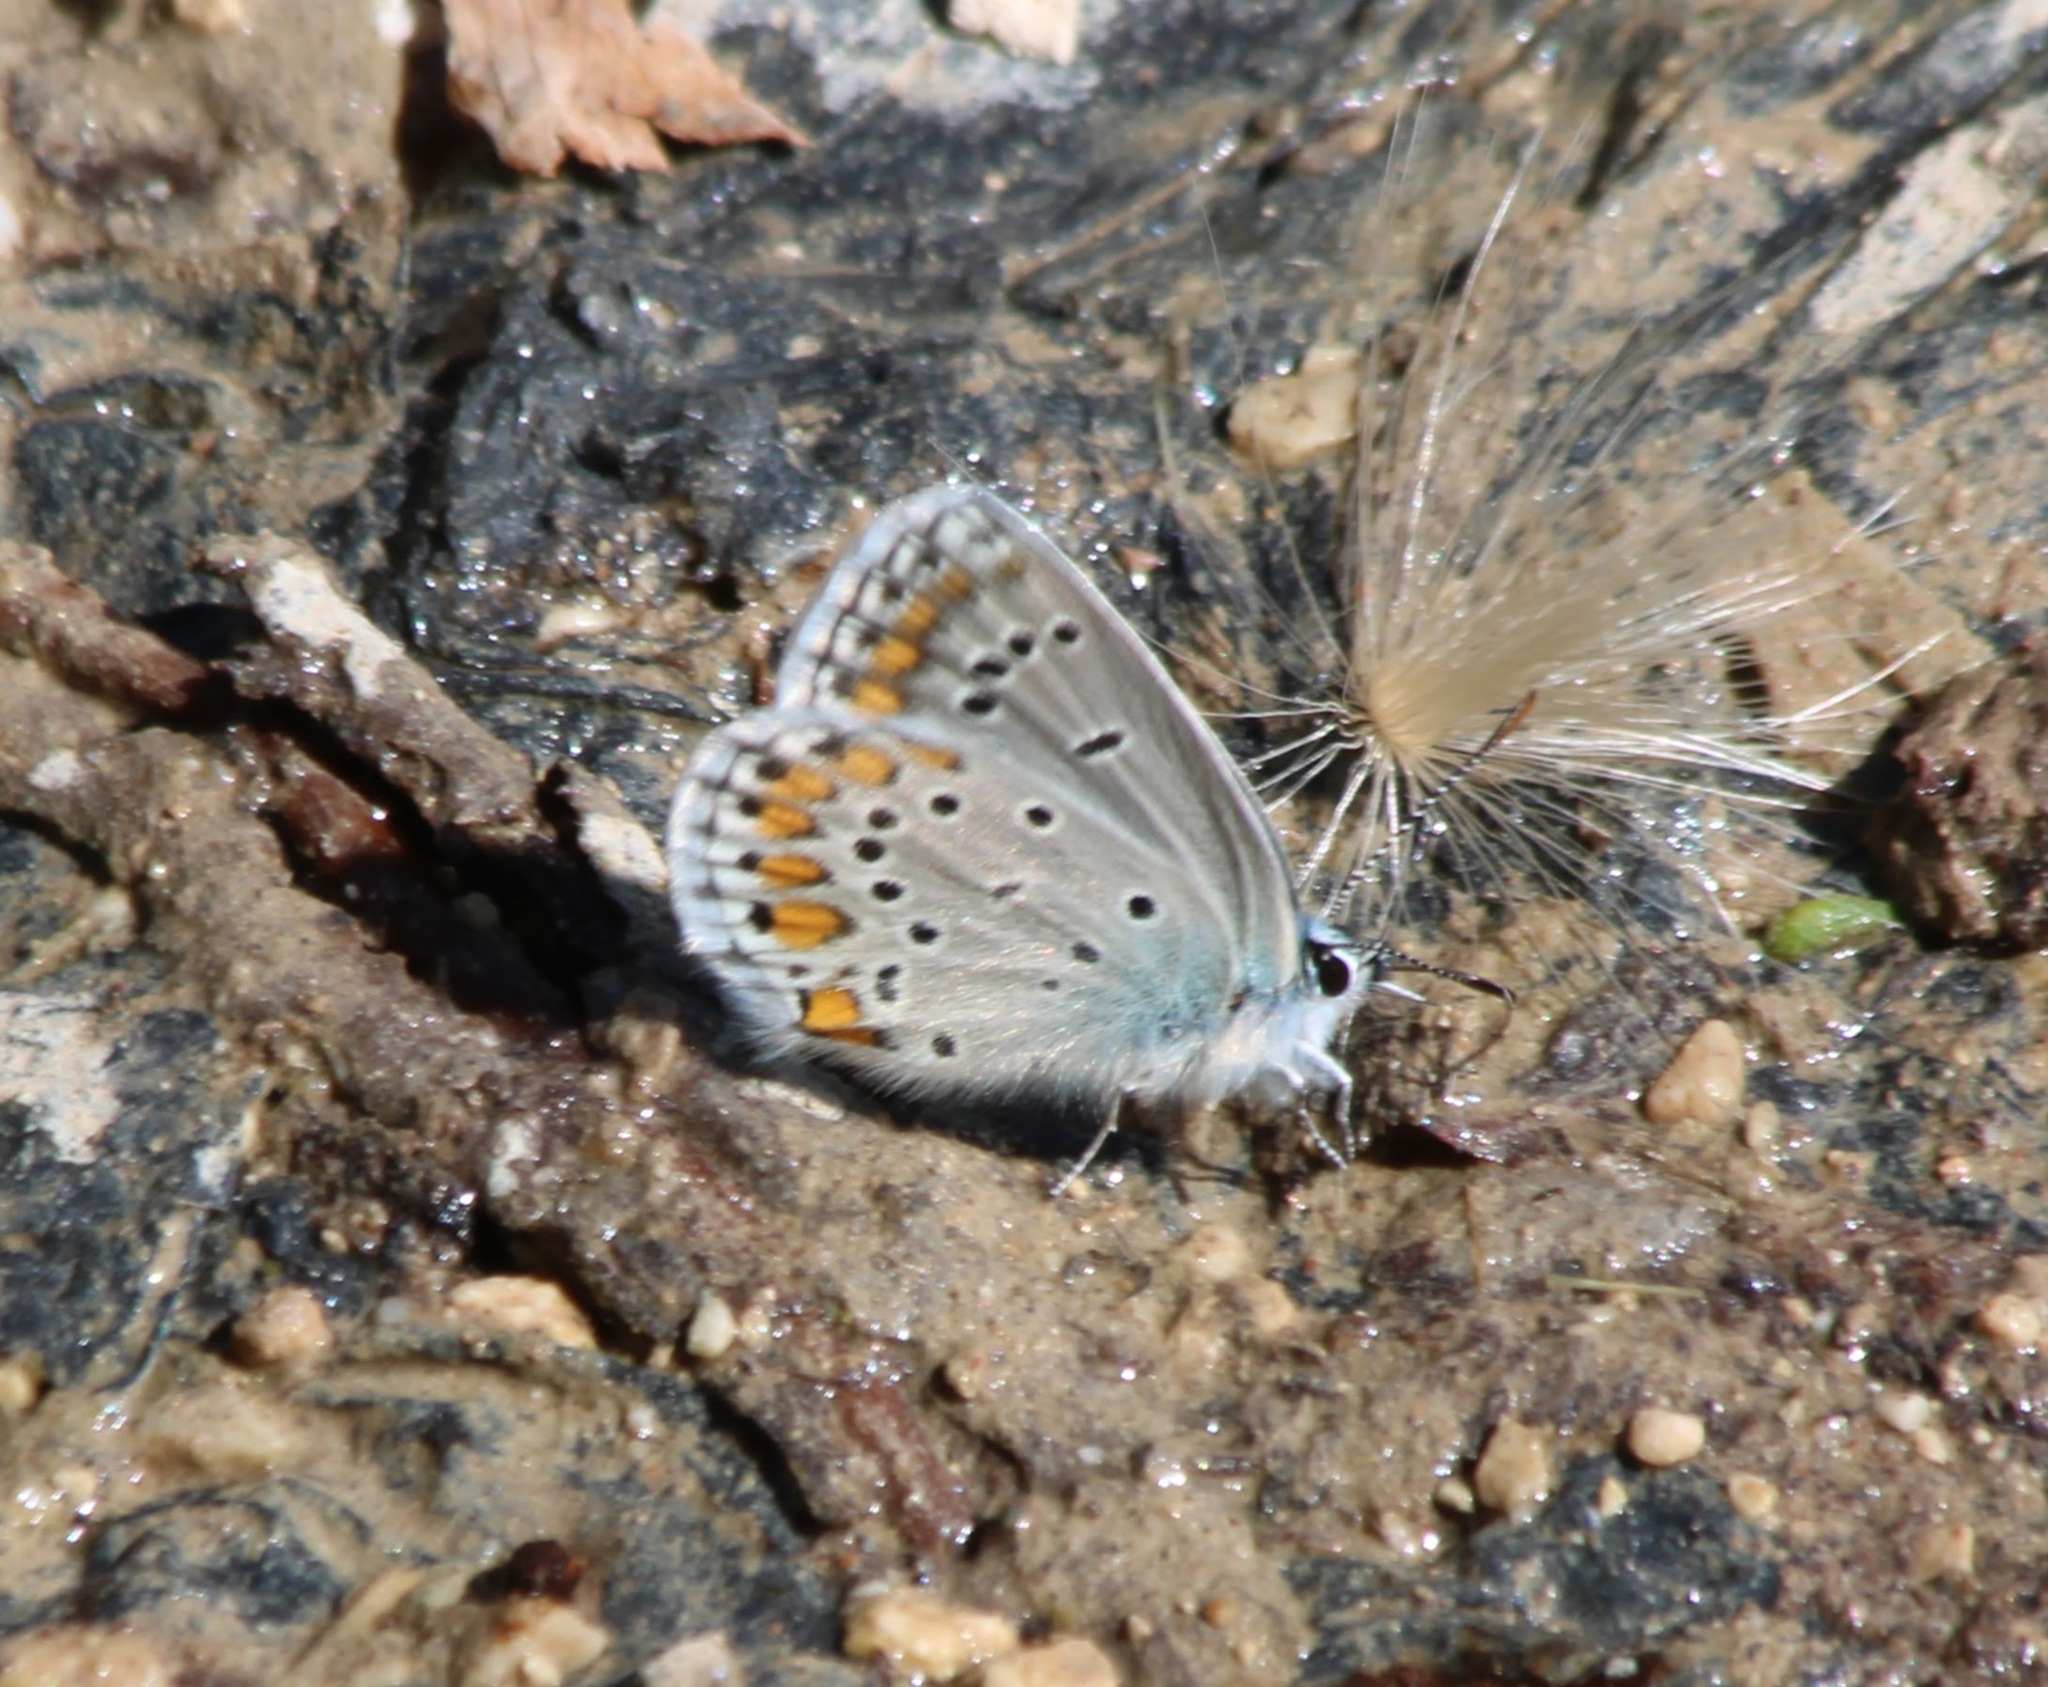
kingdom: Animalia
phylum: Arthropoda
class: Insecta
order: Lepidoptera
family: Lycaenidae
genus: Kretania
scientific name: Kretania modica
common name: Anatolian zephyr blue
